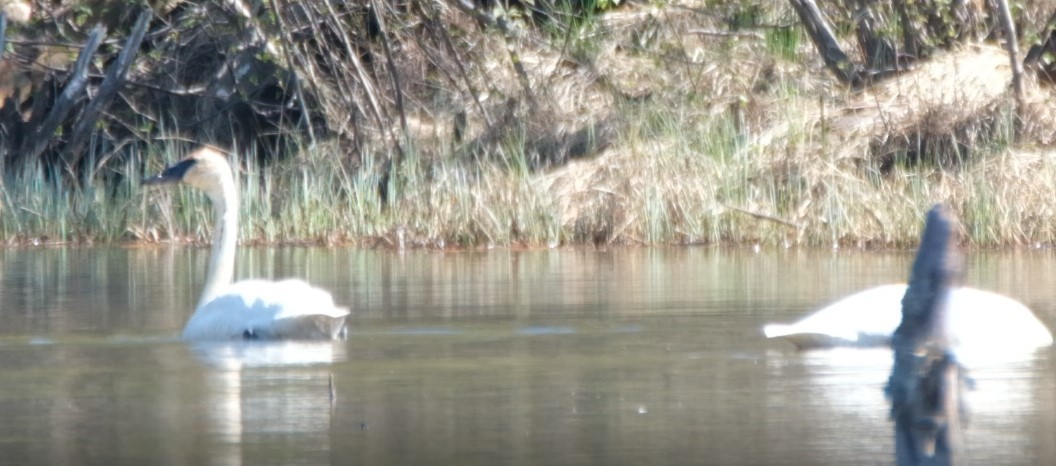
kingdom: Animalia
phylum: Chordata
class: Aves
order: Anseriformes
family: Anatidae
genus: Cygnus
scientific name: Cygnus buccinator
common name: Trumpeter swan
